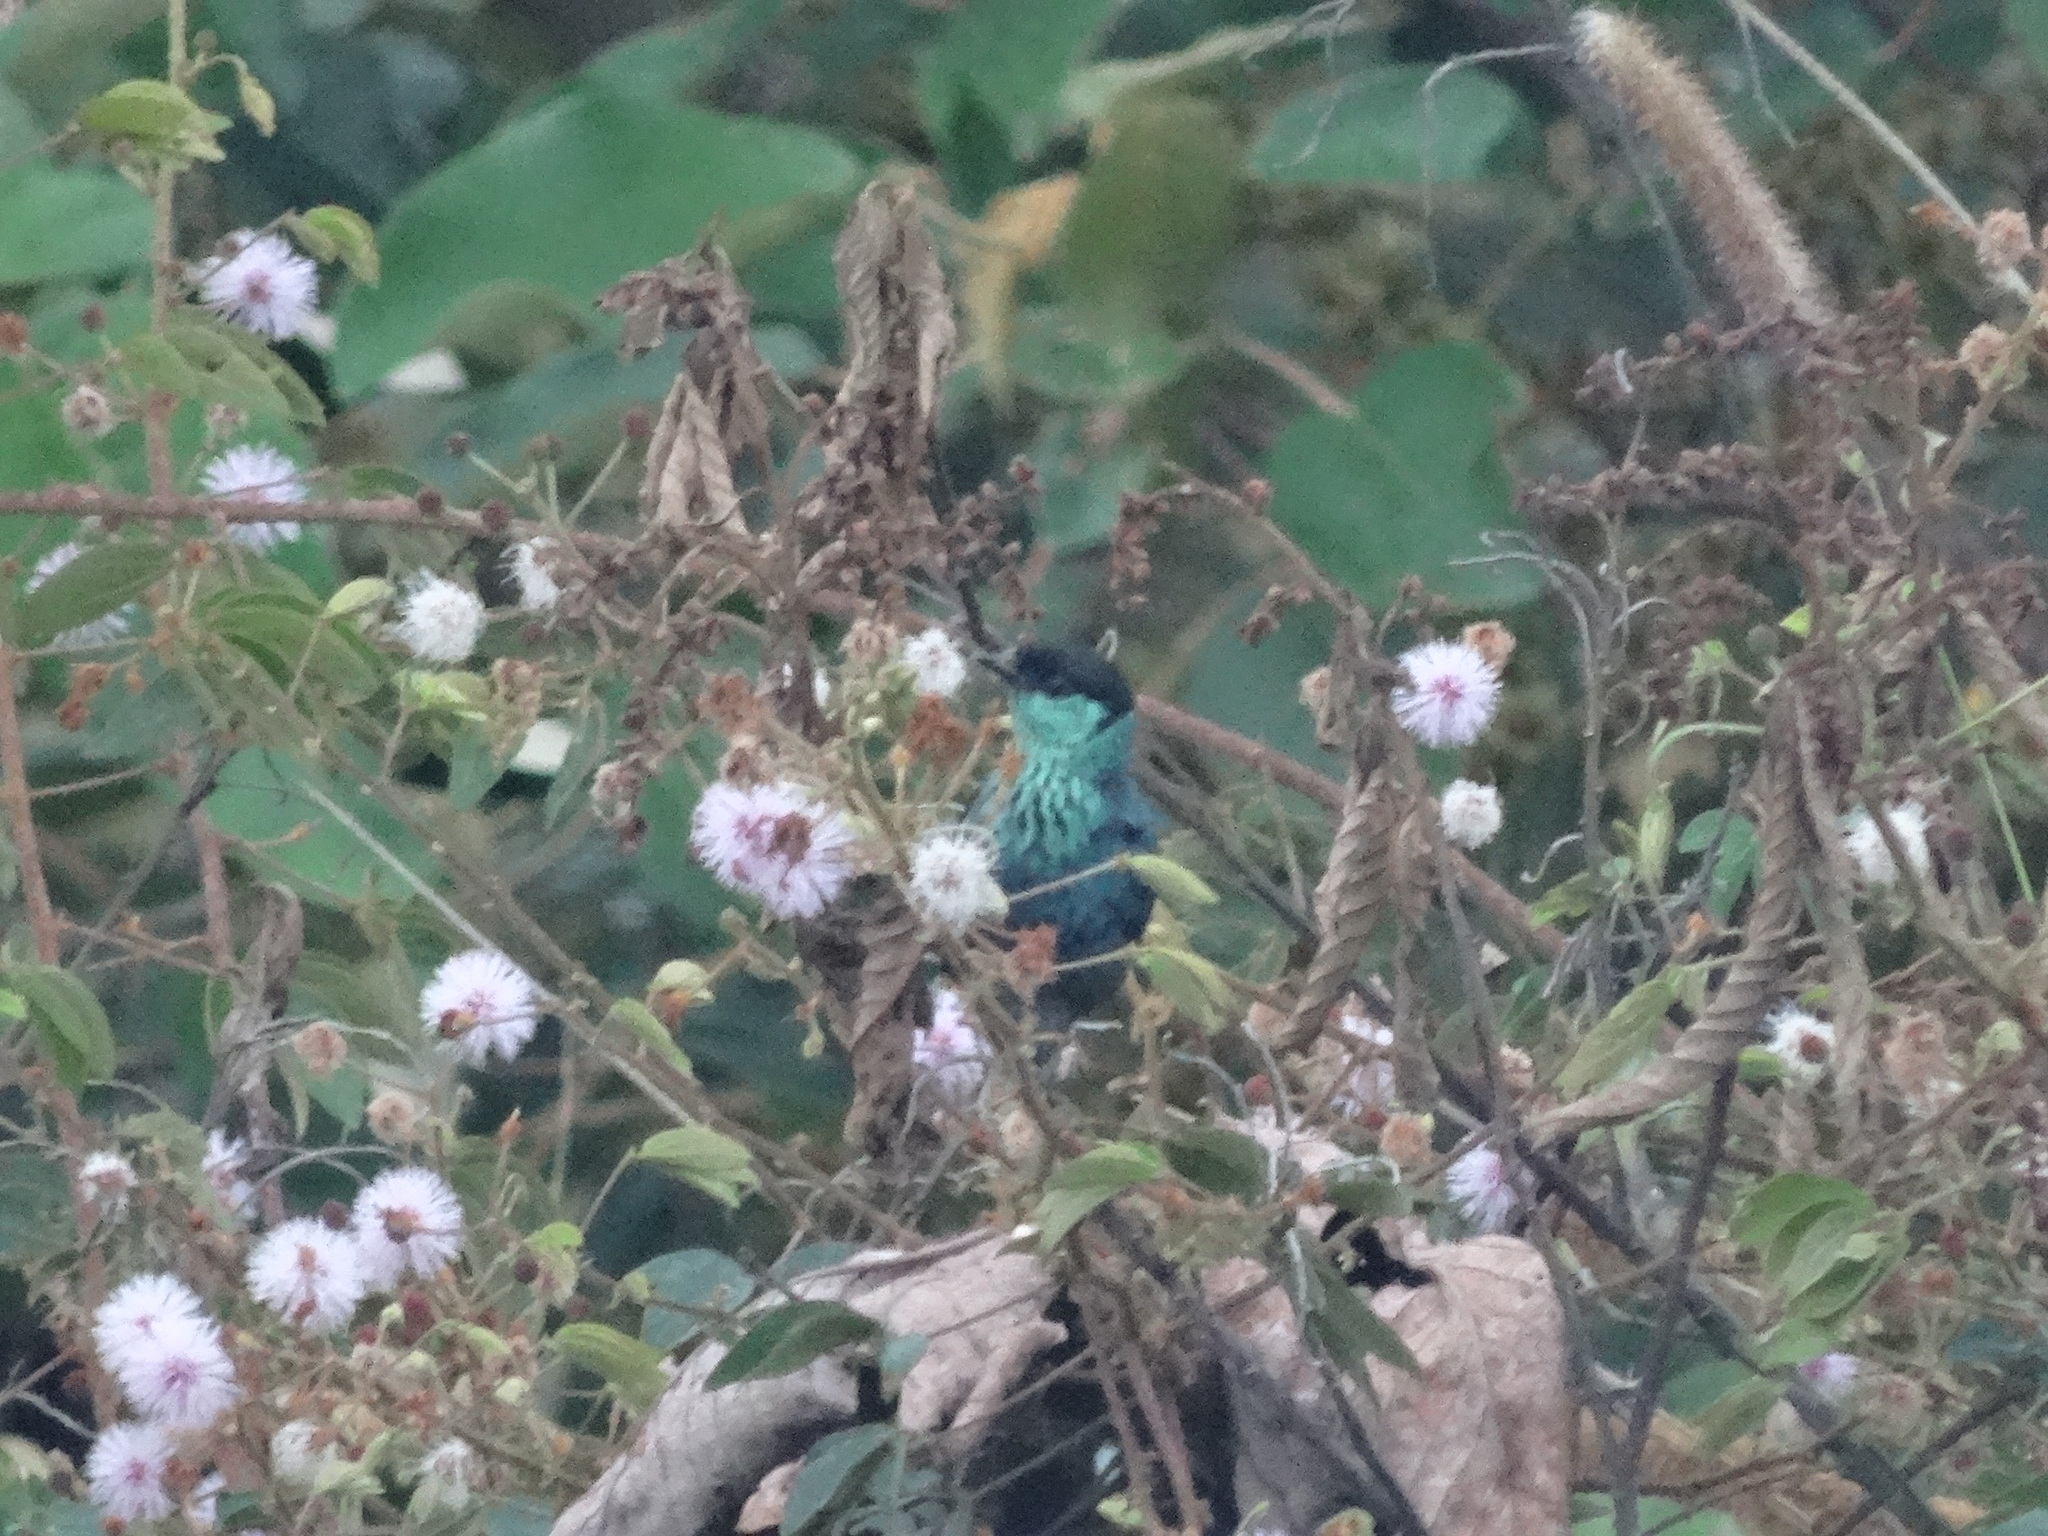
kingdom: Animalia
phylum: Chordata
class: Aves
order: Passeriformes
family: Thraupidae
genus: Stilpnia
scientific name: Stilpnia heinei
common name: Black-capped tanager
